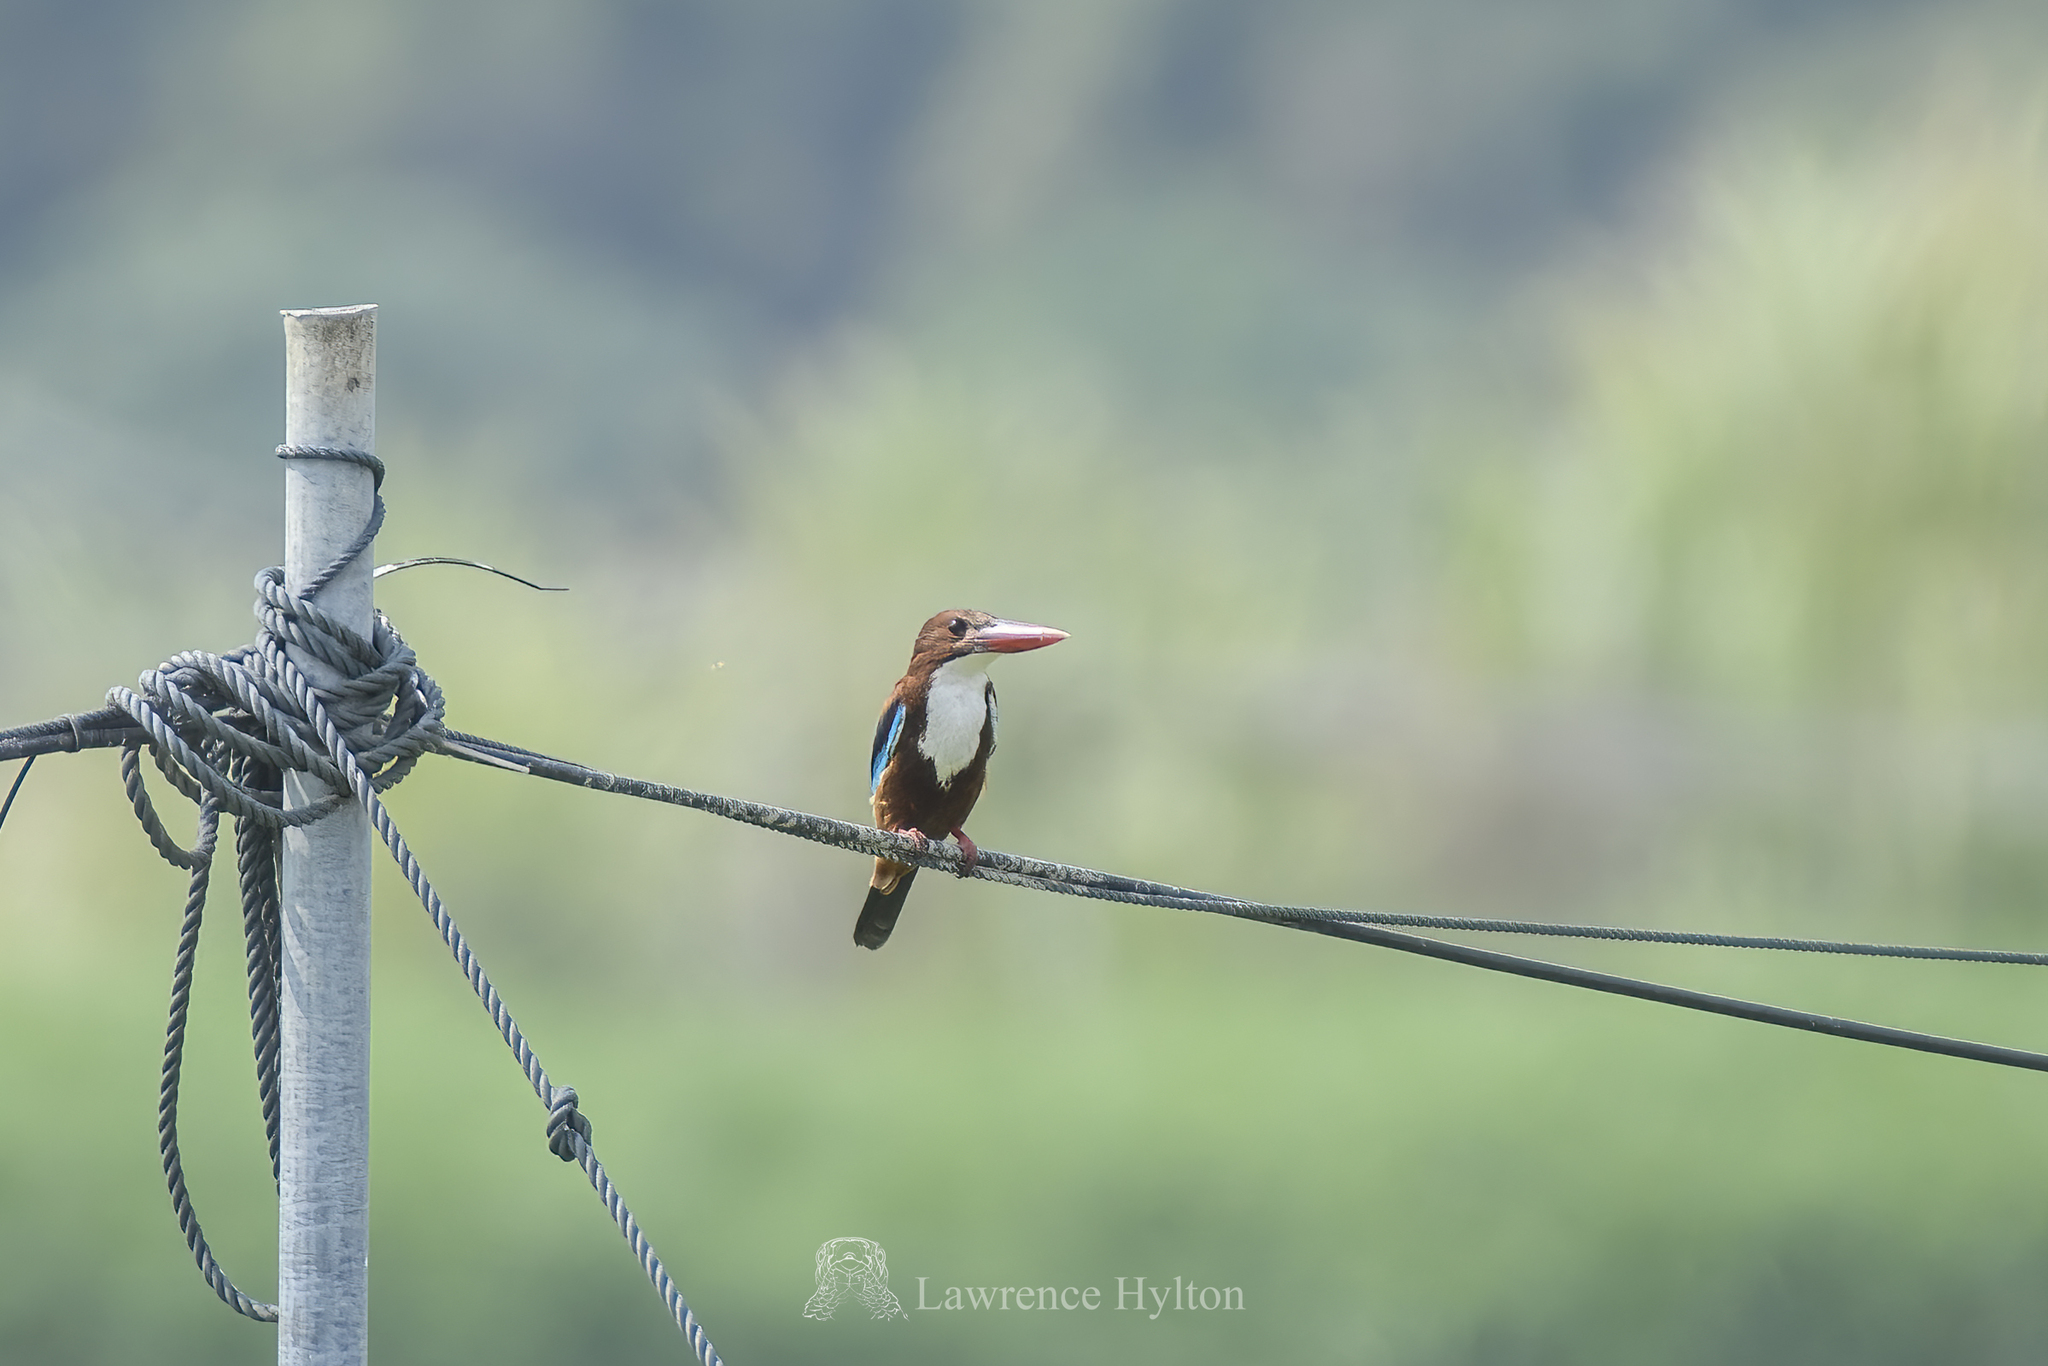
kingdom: Animalia
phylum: Chordata
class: Aves
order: Coraciiformes
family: Alcedinidae
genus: Halcyon
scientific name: Halcyon smyrnensis
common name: White-throated kingfisher
